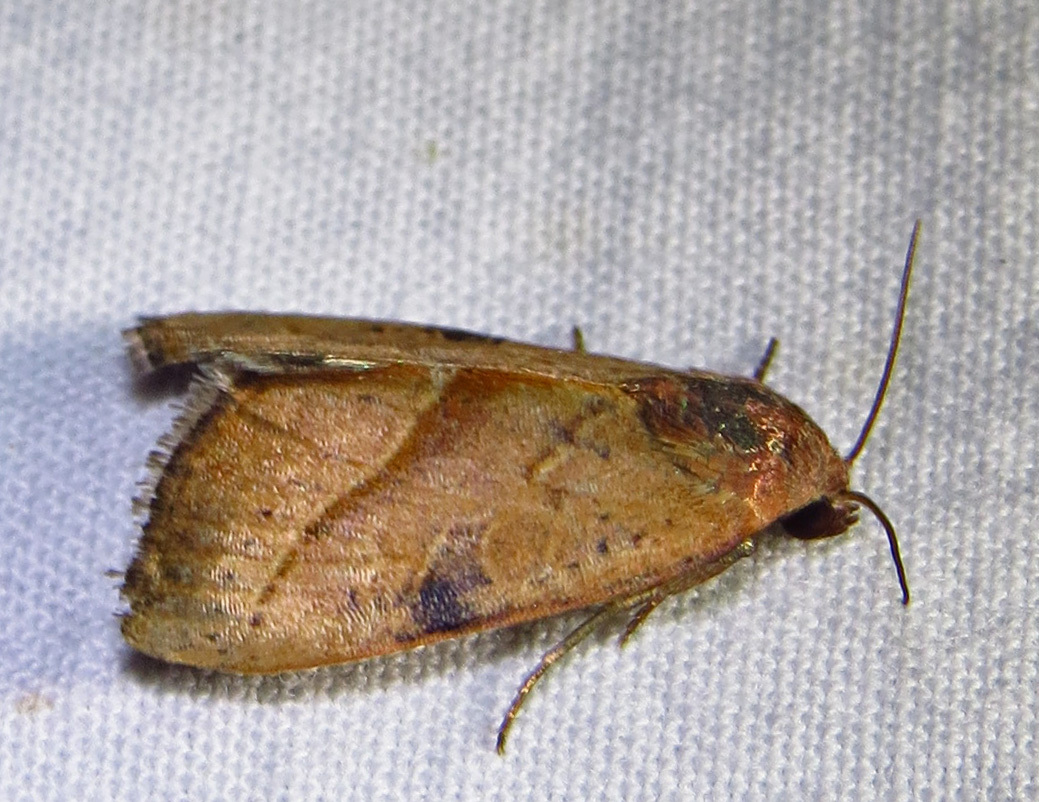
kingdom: Animalia
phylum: Arthropoda
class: Insecta
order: Lepidoptera
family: Noctuidae
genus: Galgula
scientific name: Galgula partita
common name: Wedgeling
